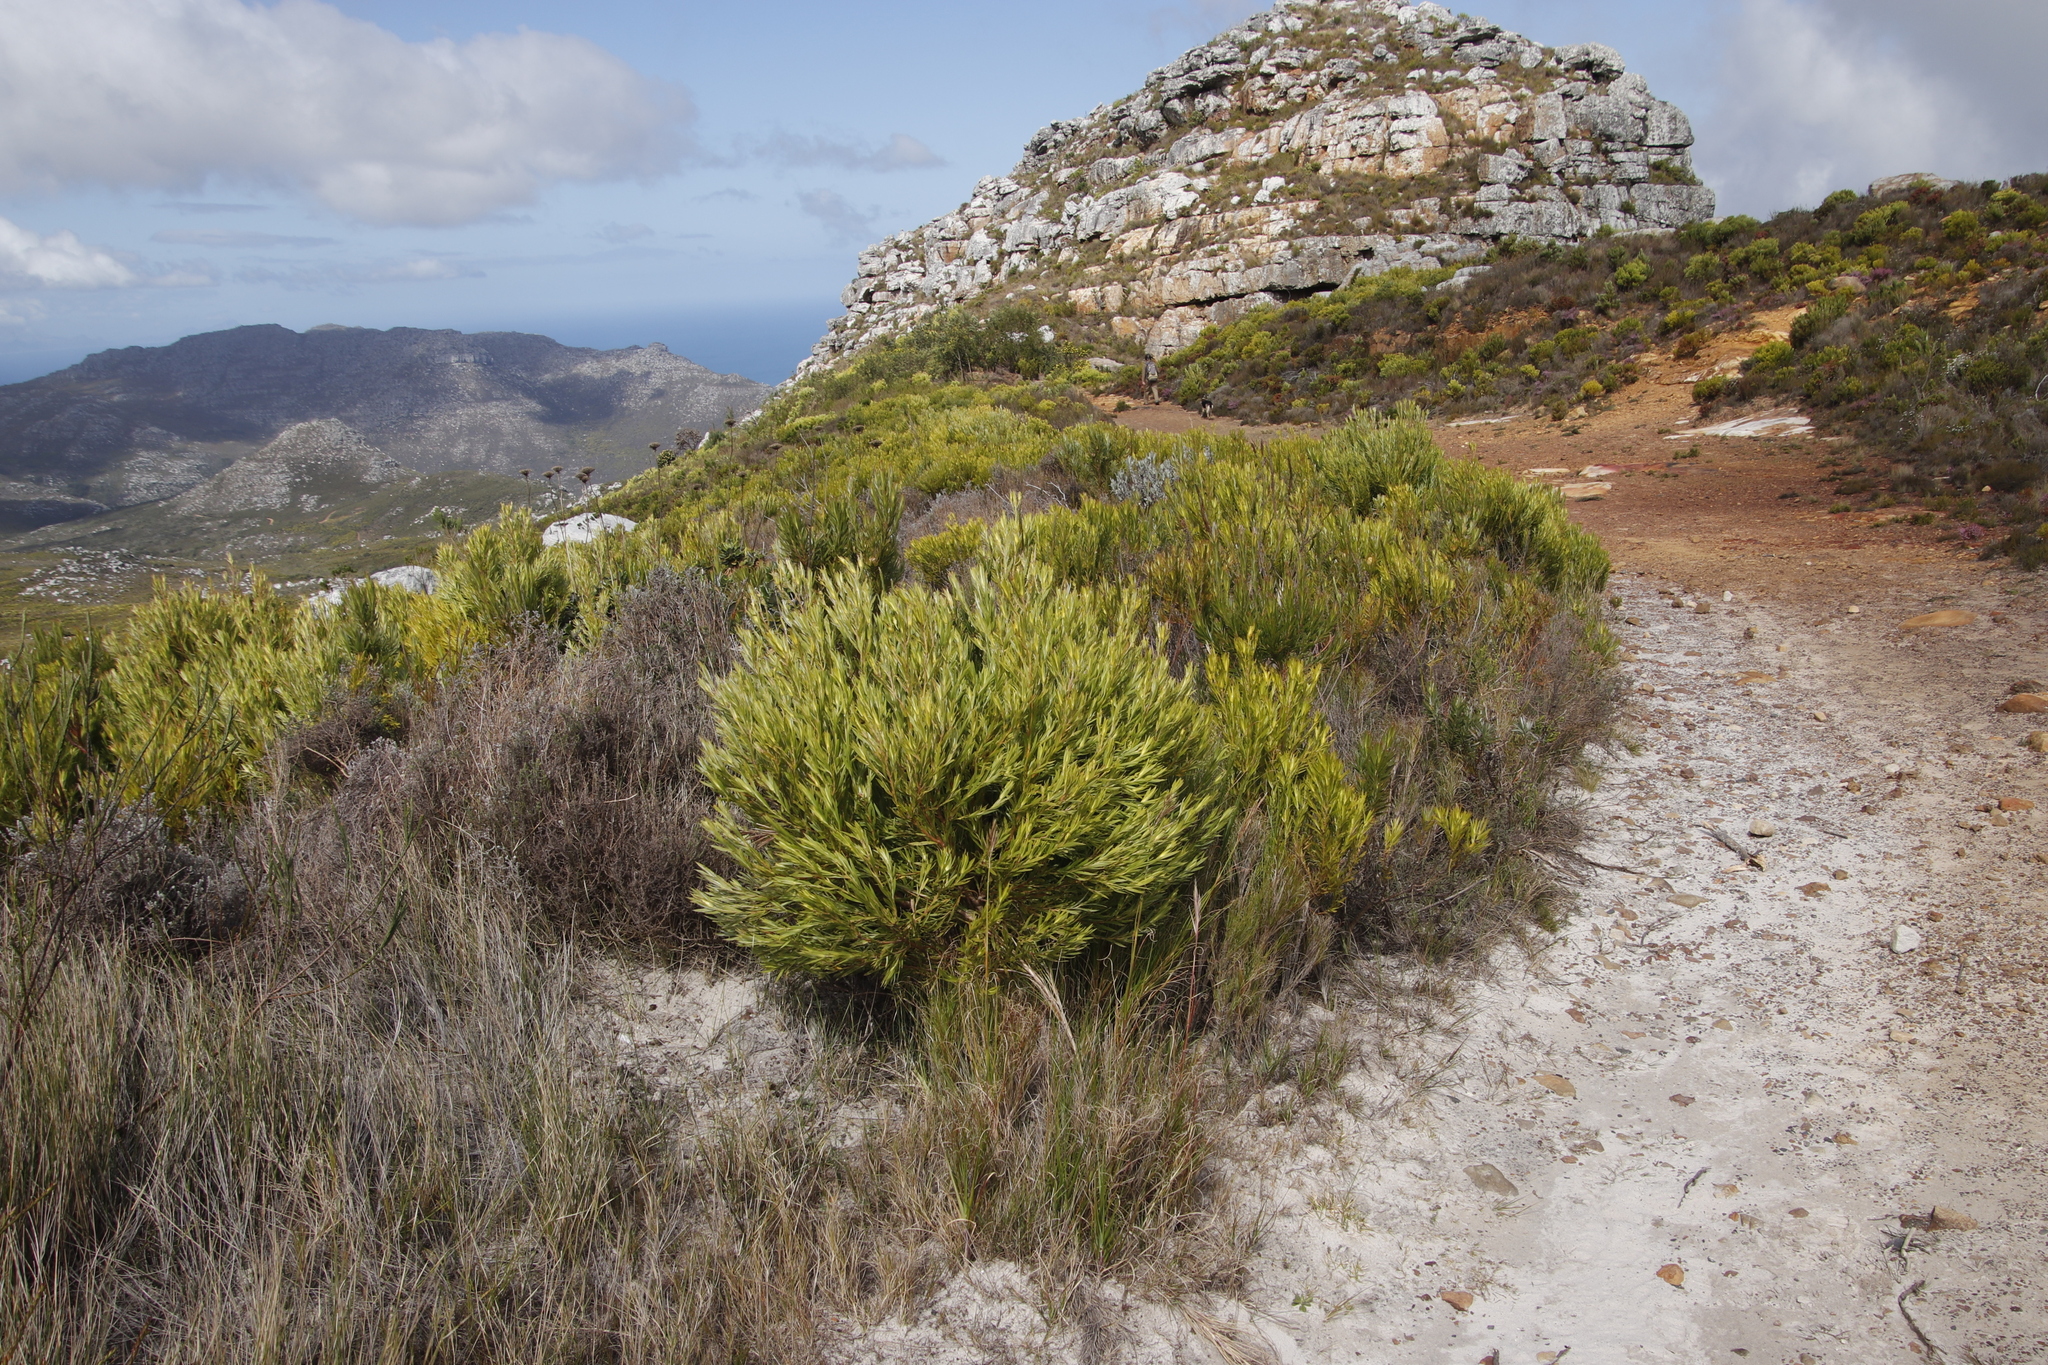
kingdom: Plantae
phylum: Tracheophyta
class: Magnoliopsida
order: Proteales
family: Proteaceae
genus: Leucadendron
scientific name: Leucadendron xanthoconus
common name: Sickle-leaf conebush
